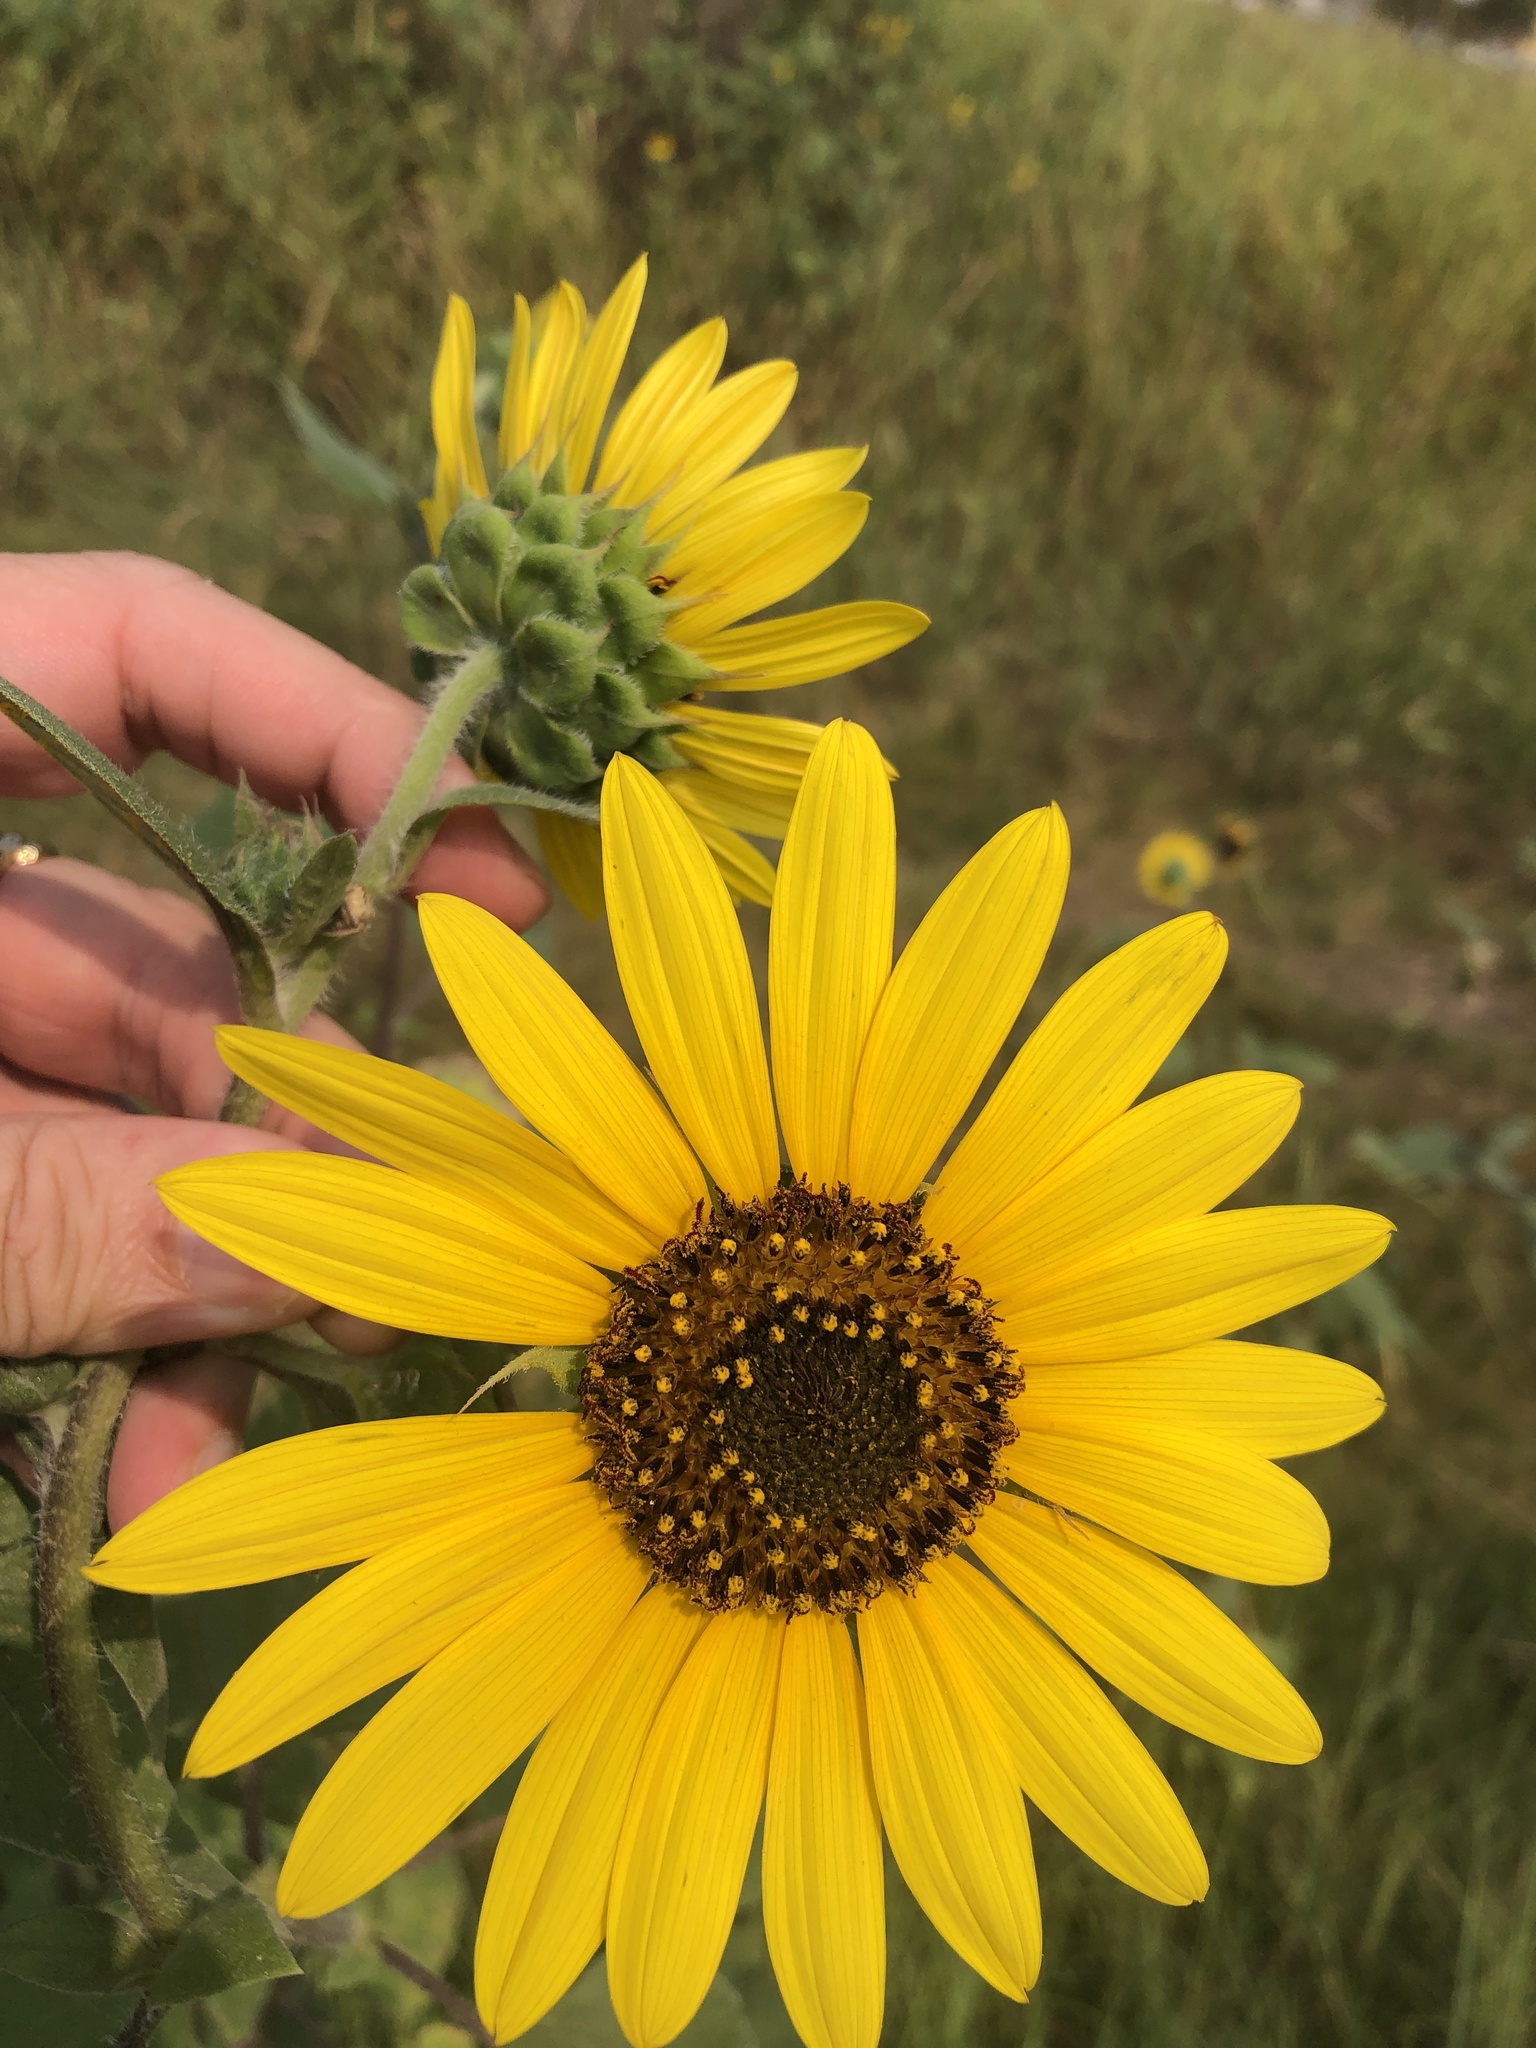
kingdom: Plantae
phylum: Tracheophyta
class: Magnoliopsida
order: Asterales
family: Asteraceae
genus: Helianthus
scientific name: Helianthus annuus
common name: Sunflower
